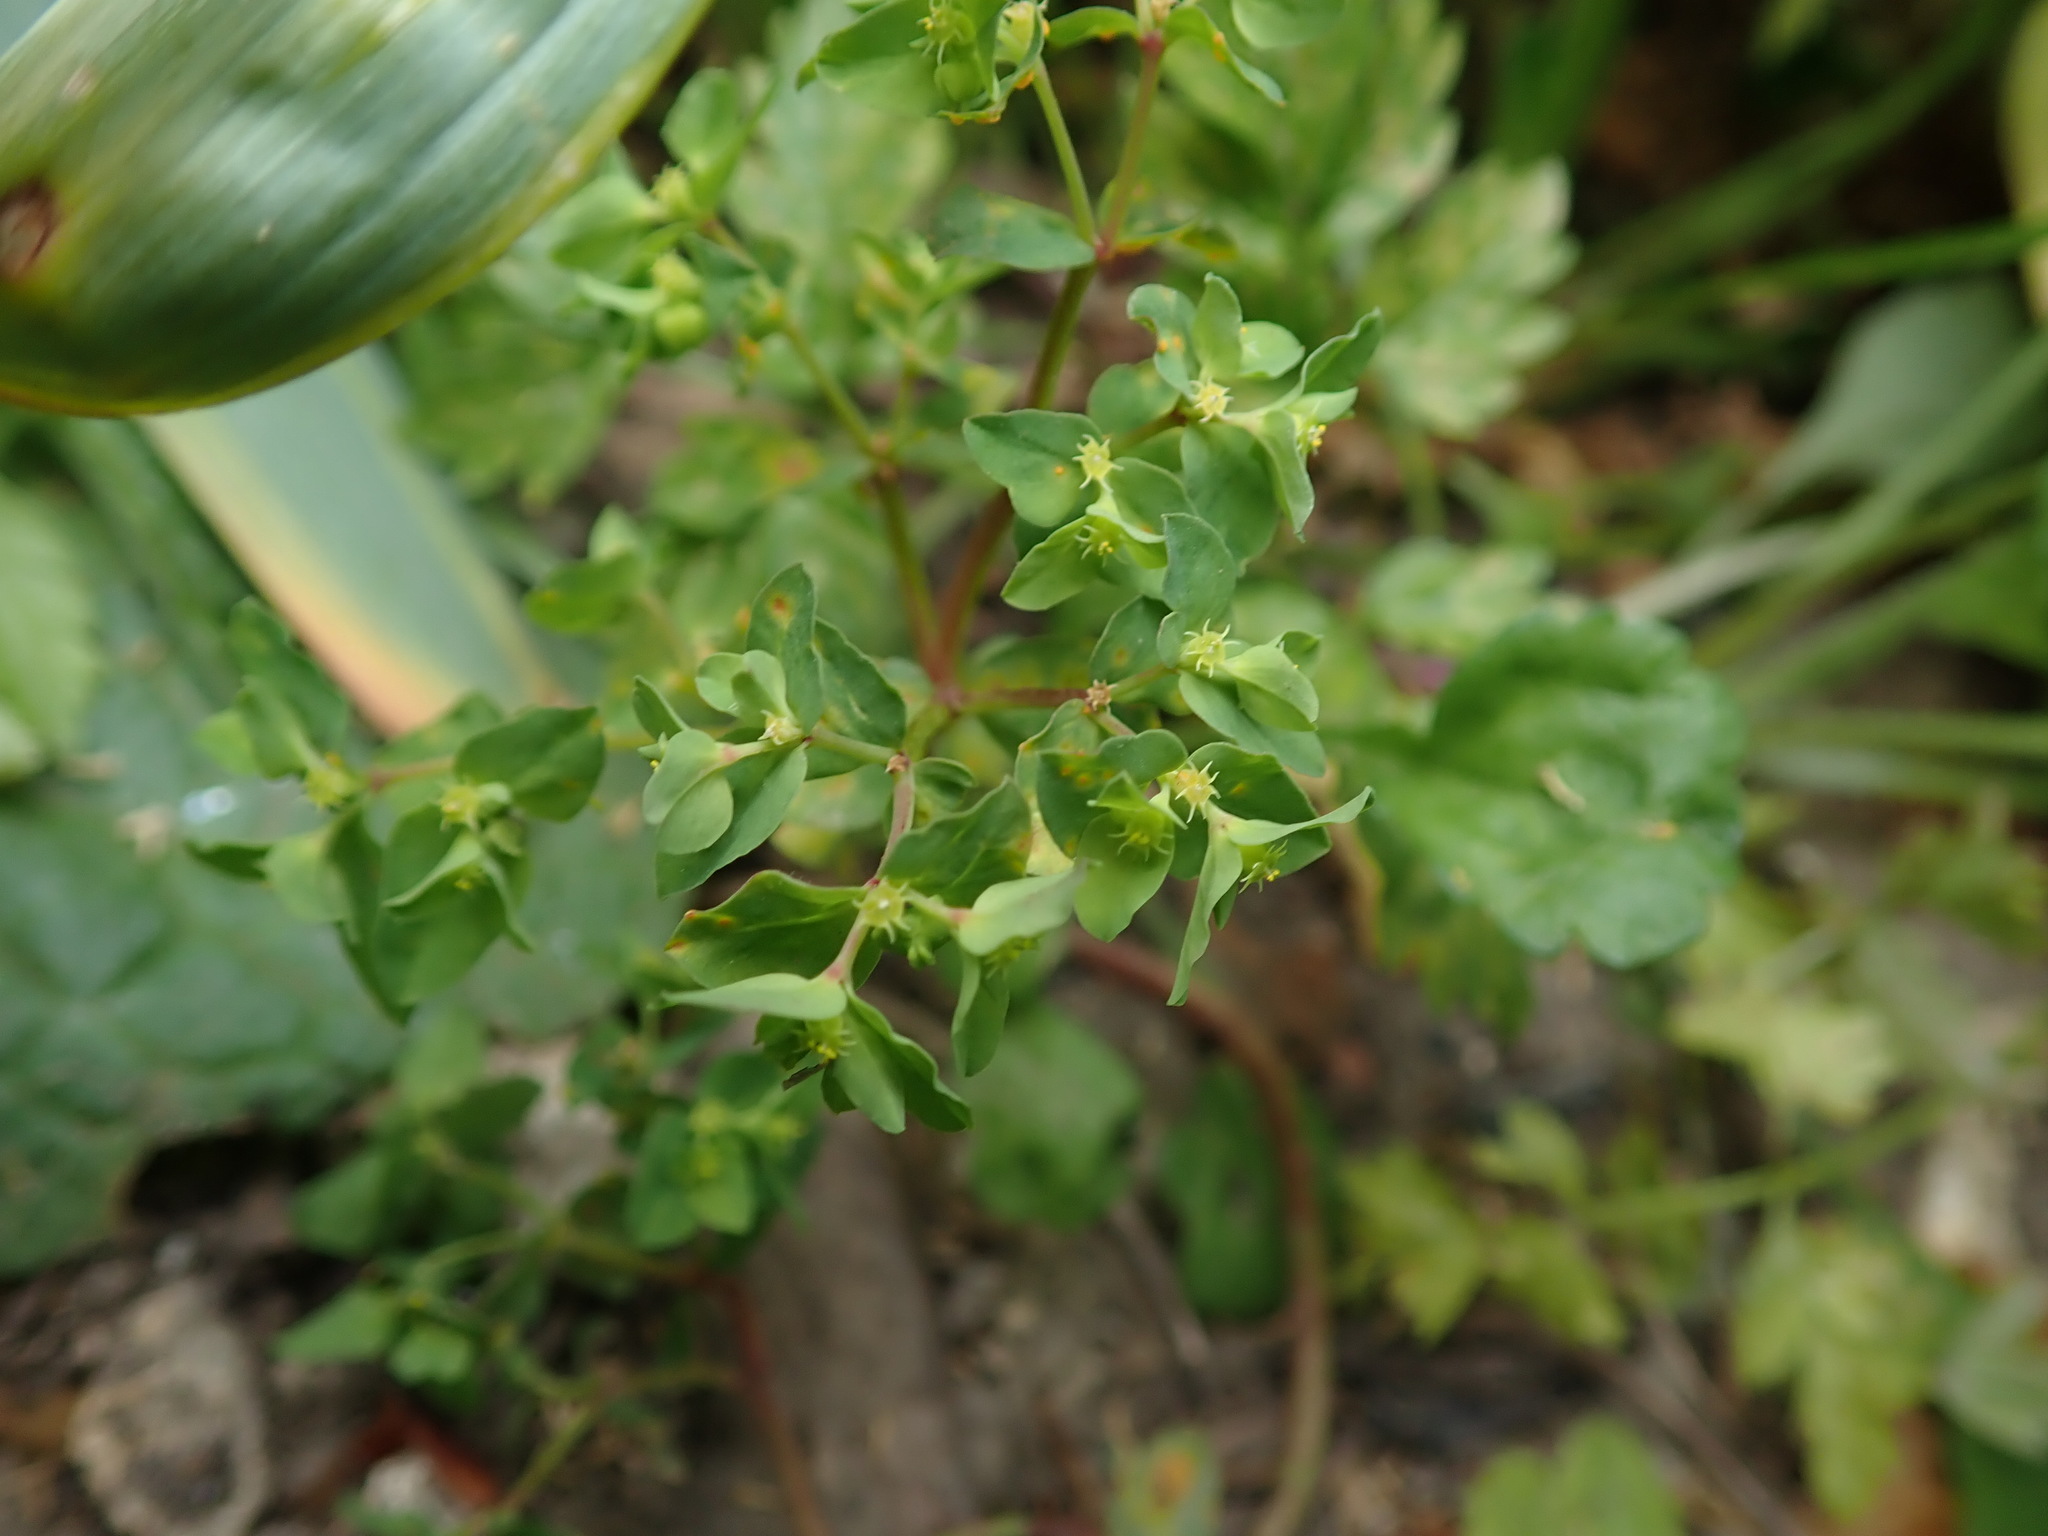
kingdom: Plantae
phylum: Tracheophyta
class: Magnoliopsida
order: Malpighiales
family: Euphorbiaceae
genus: Euphorbia
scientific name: Euphorbia peplus
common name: Petty spurge
